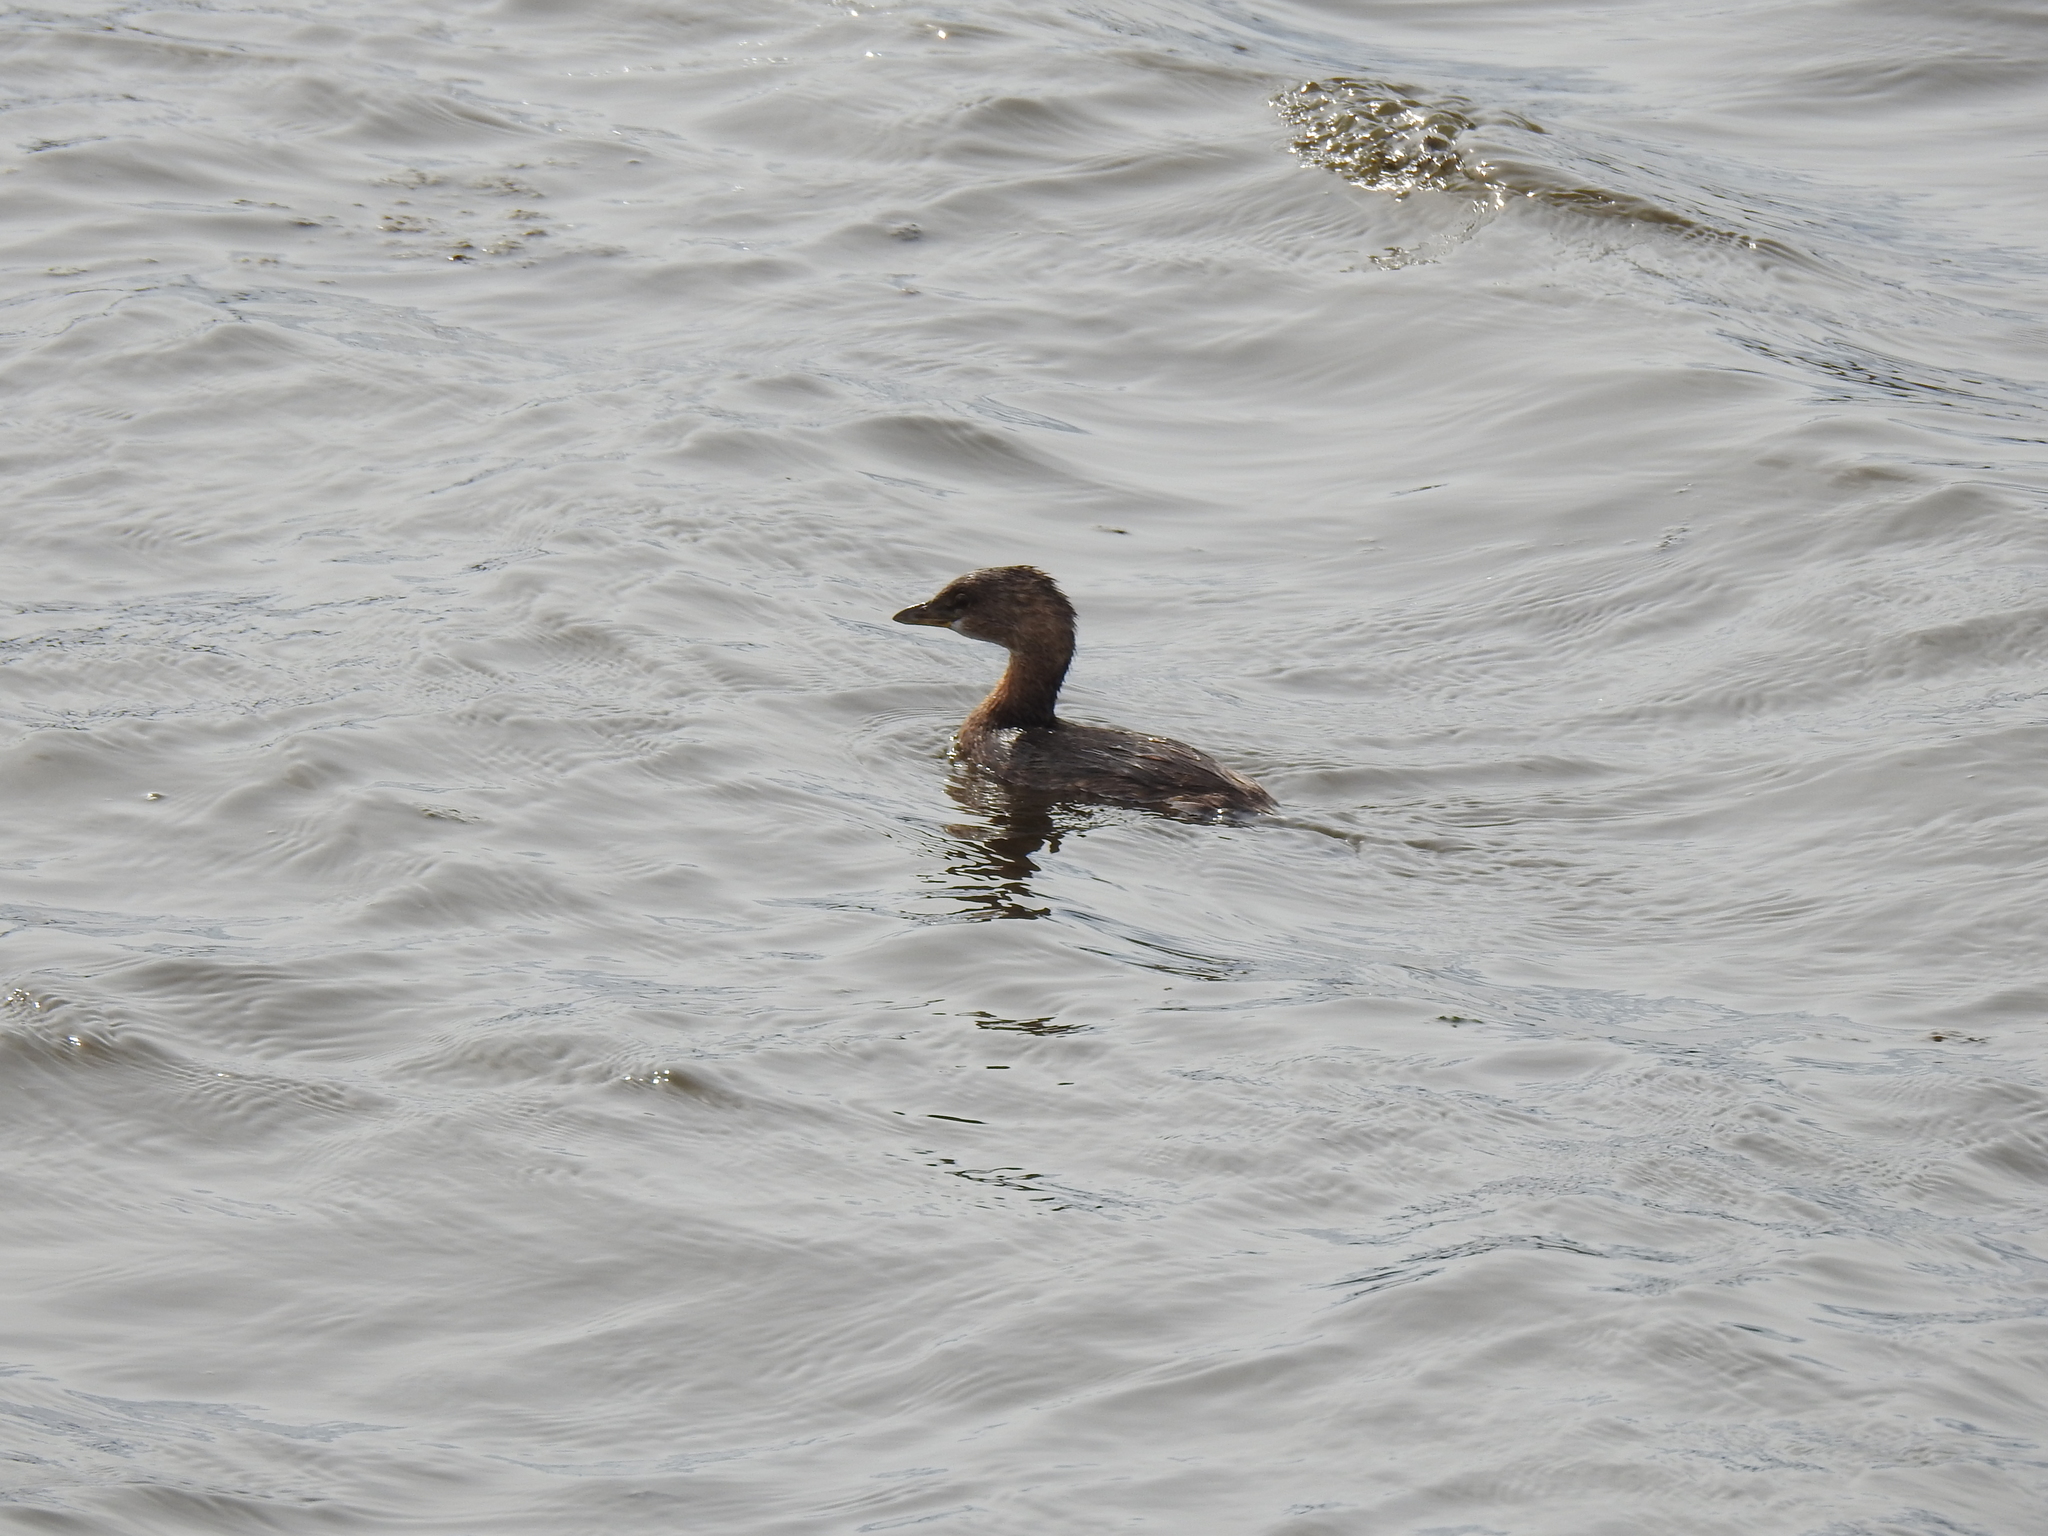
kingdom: Animalia
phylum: Chordata
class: Aves
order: Podicipediformes
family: Podicipedidae
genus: Podilymbus
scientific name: Podilymbus podiceps
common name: Pied-billed grebe
